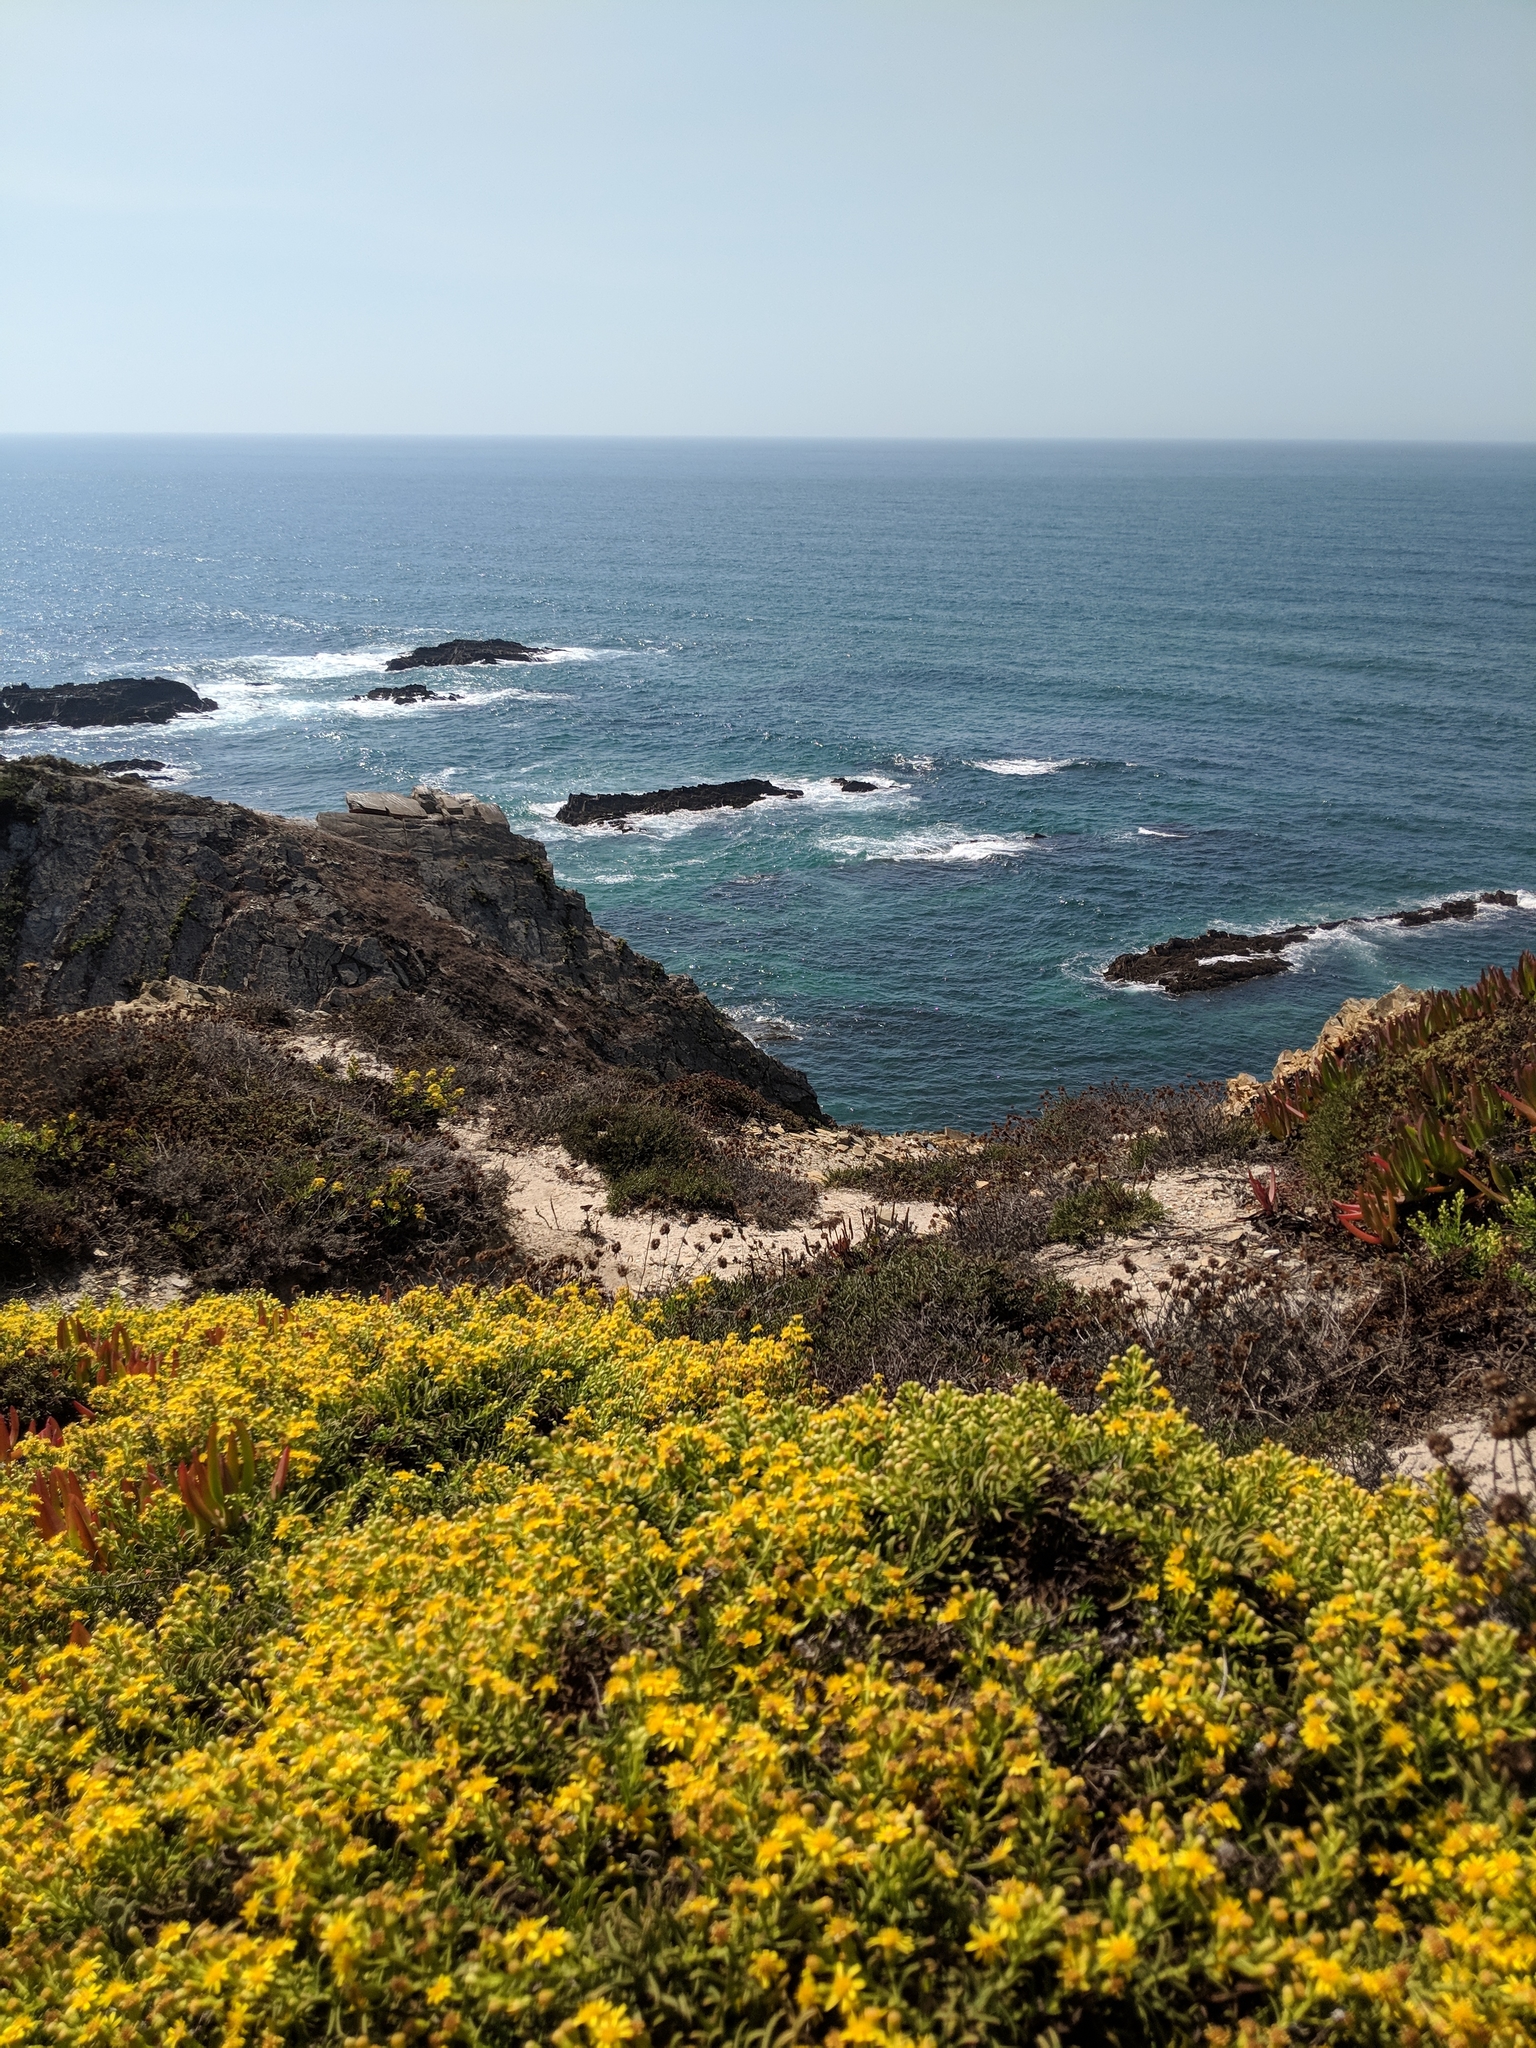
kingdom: Plantae
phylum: Tracheophyta
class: Magnoliopsida
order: Asterales
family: Asteraceae
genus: Dittrichia
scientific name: Dittrichia viscosa
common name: Woody fleabane
